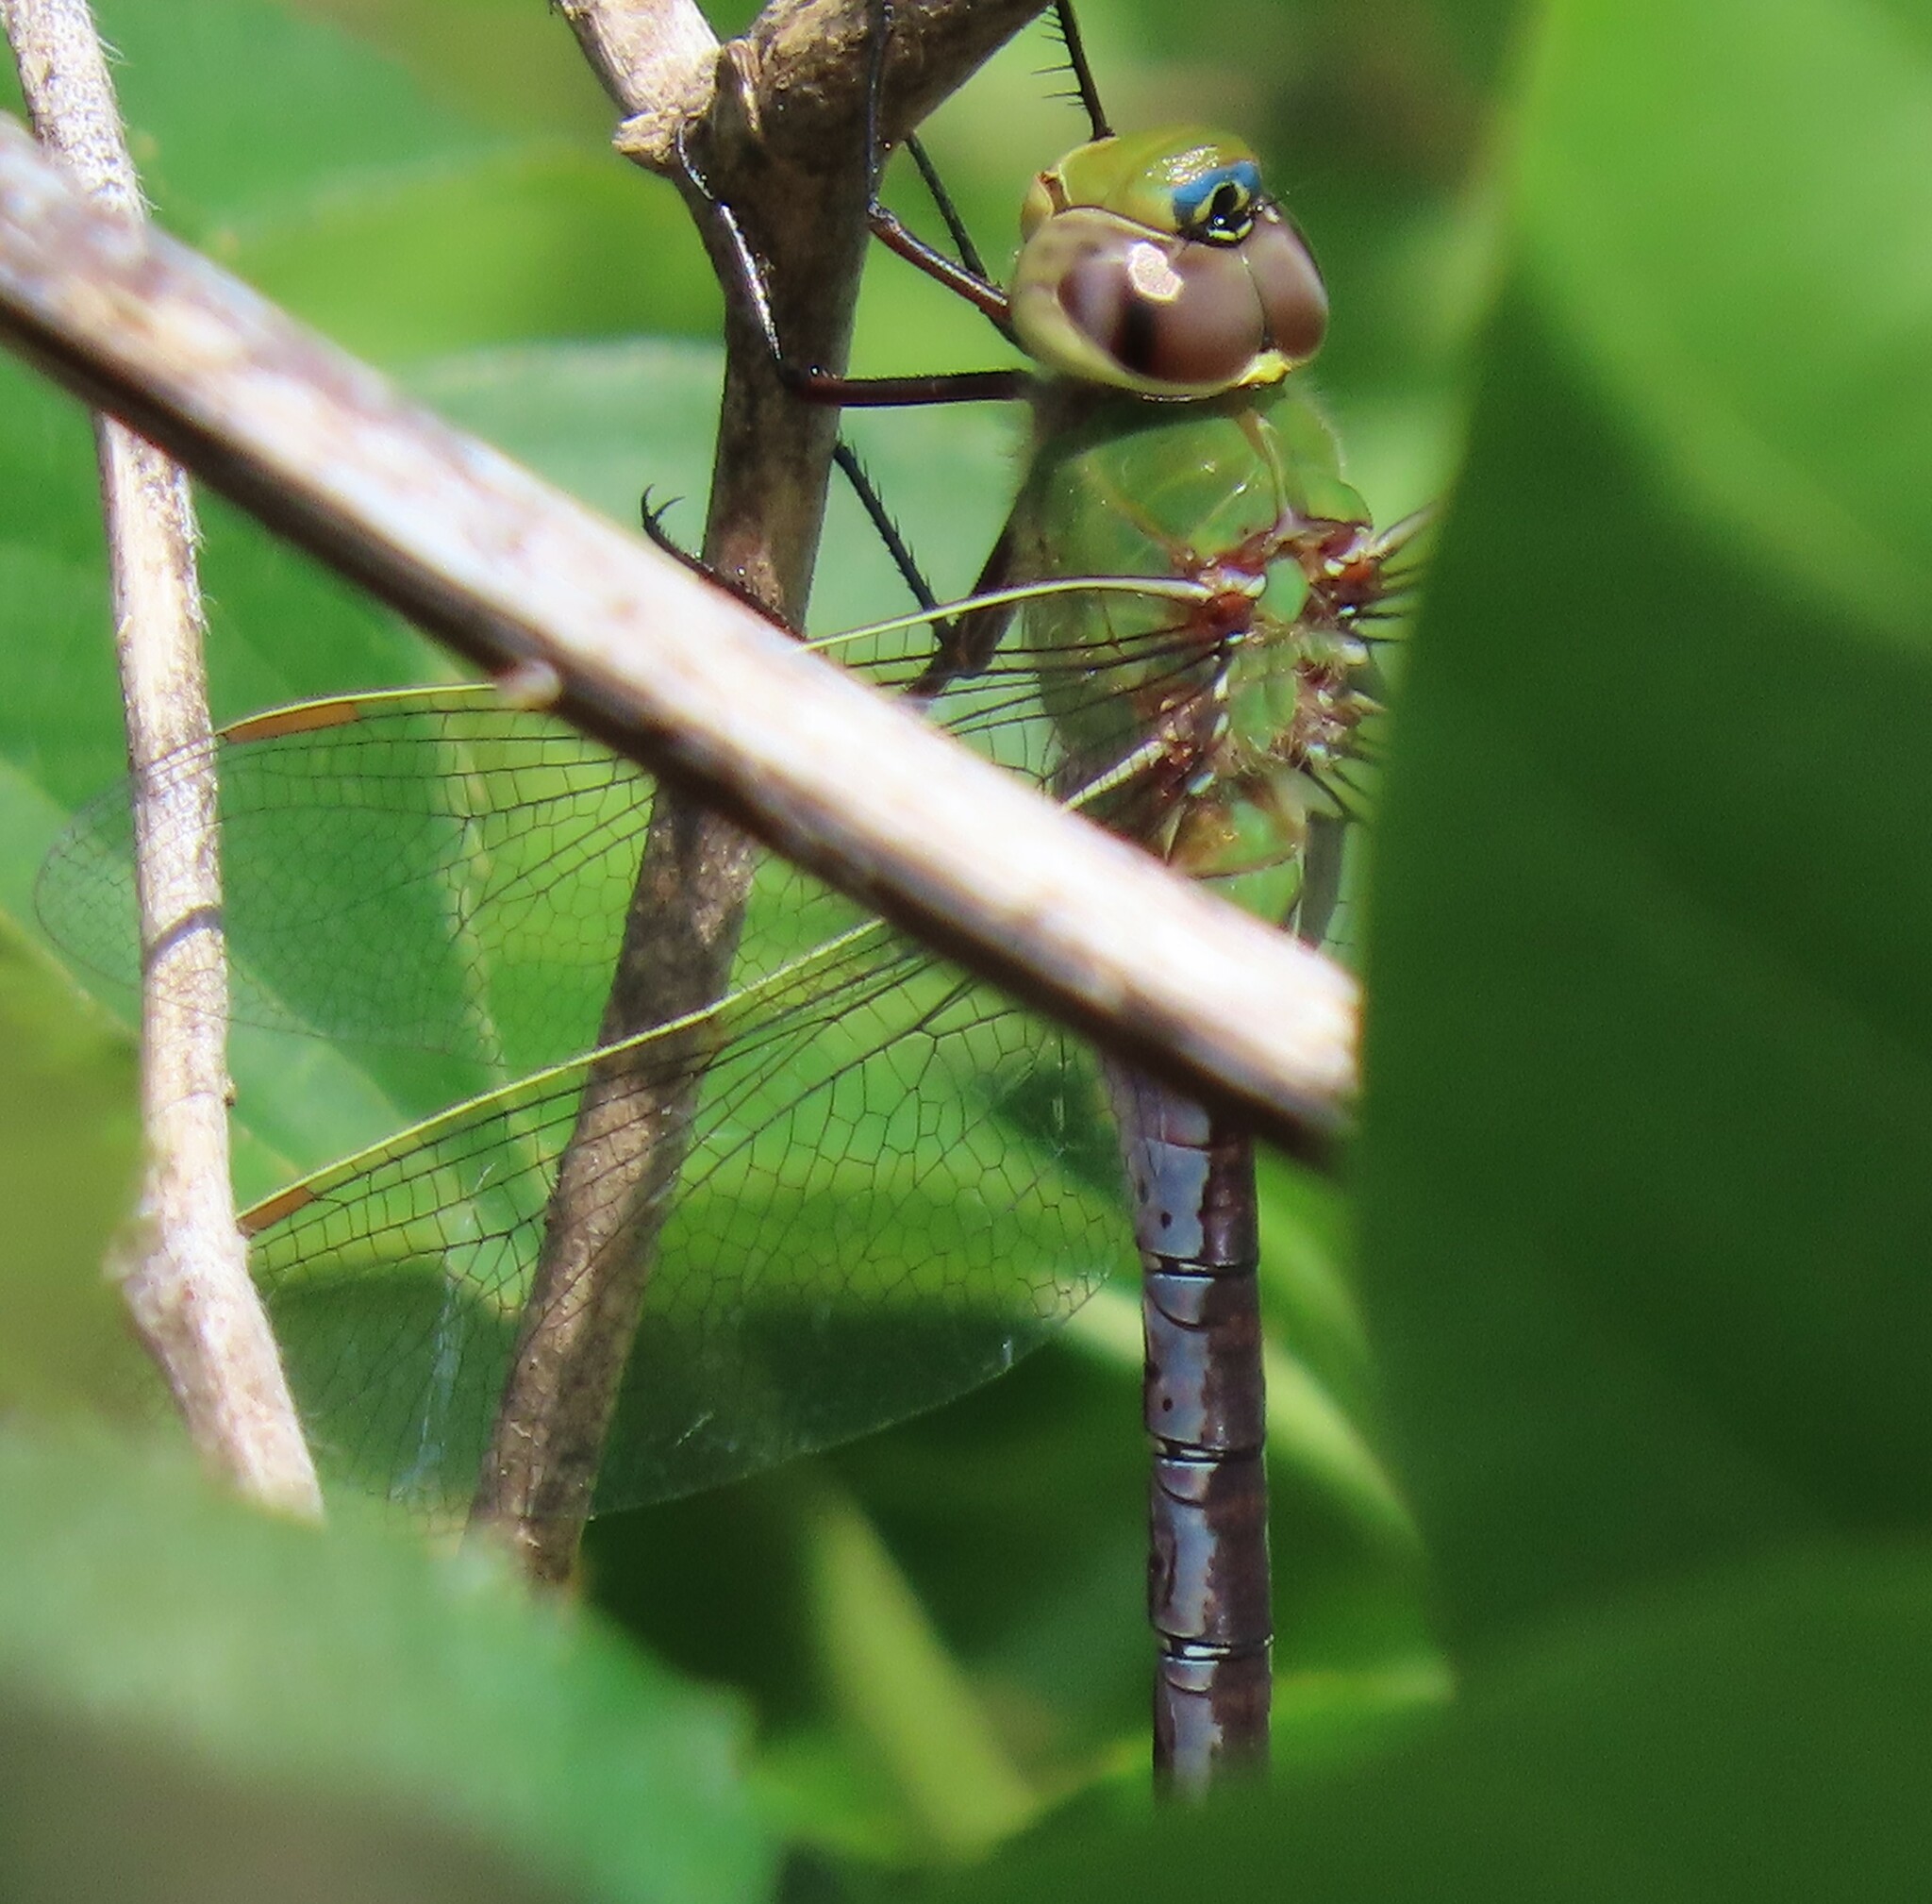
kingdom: Animalia
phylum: Arthropoda
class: Insecta
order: Odonata
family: Aeshnidae
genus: Anax
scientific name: Anax junius
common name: Common green darner
